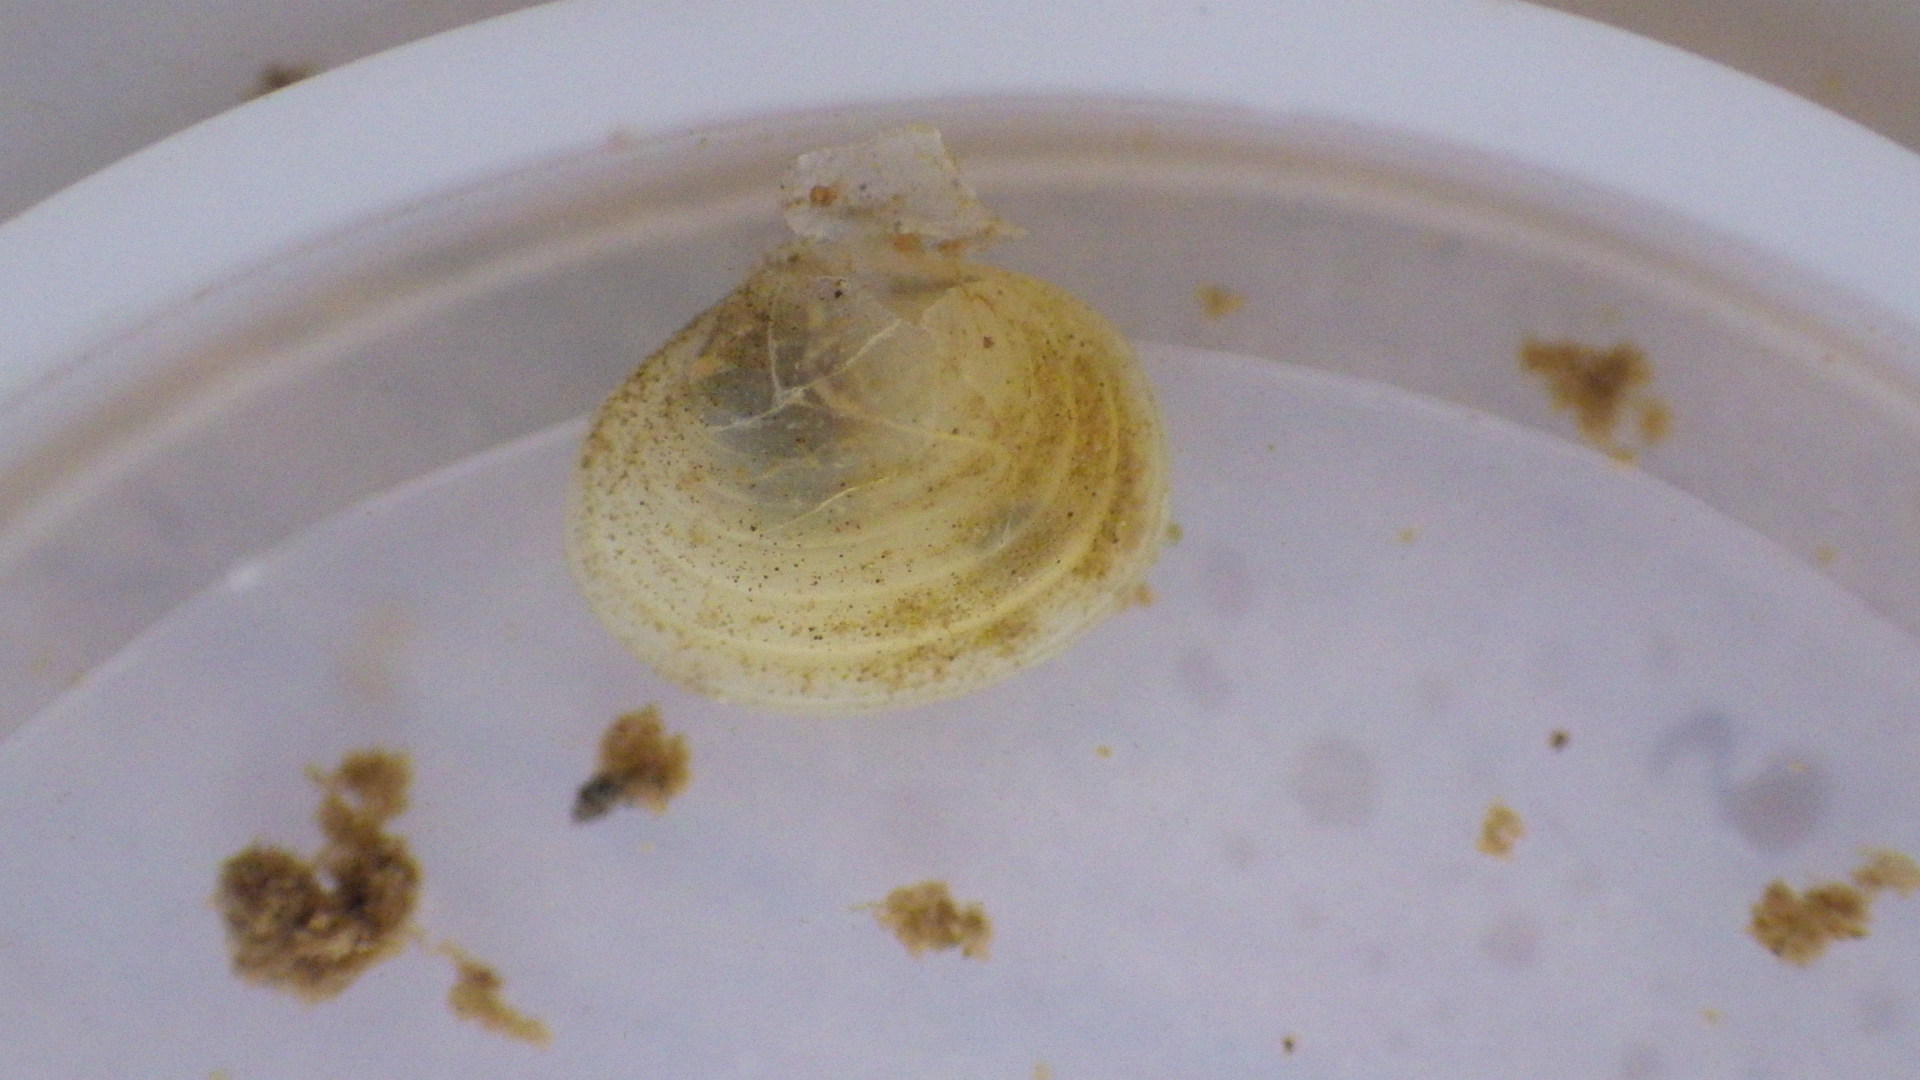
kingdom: Animalia
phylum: Mollusca
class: Bivalvia
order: Venerida
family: Cyrenidae
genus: Corbicula
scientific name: Corbicula fluminea
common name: Asian clam
